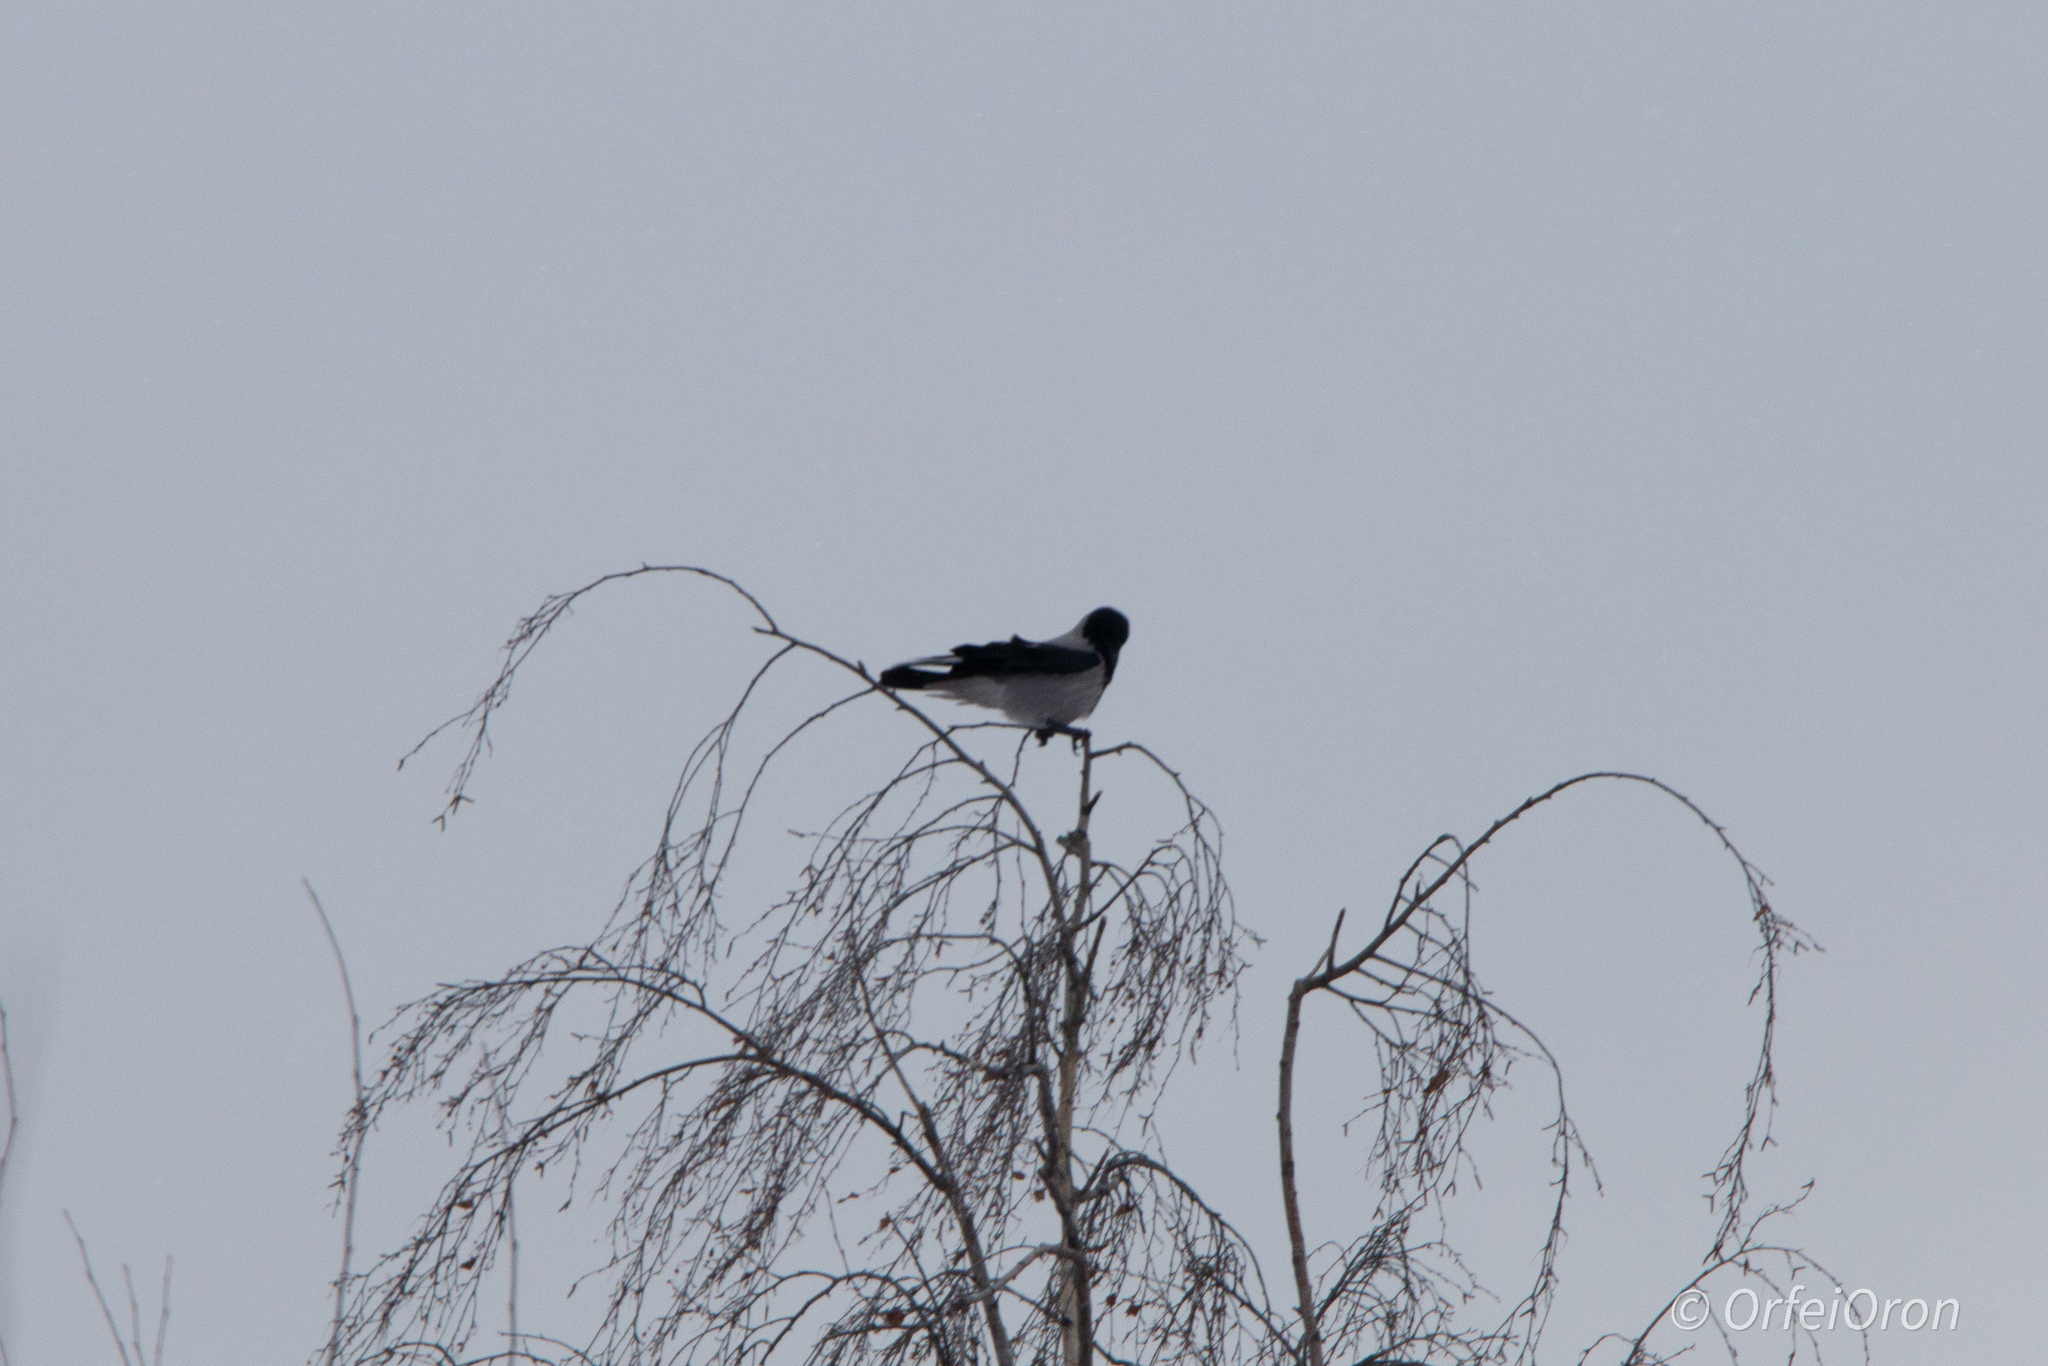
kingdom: Animalia
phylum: Chordata
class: Aves
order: Passeriformes
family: Corvidae
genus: Corvus
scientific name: Corvus cornix
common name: Hooded crow
